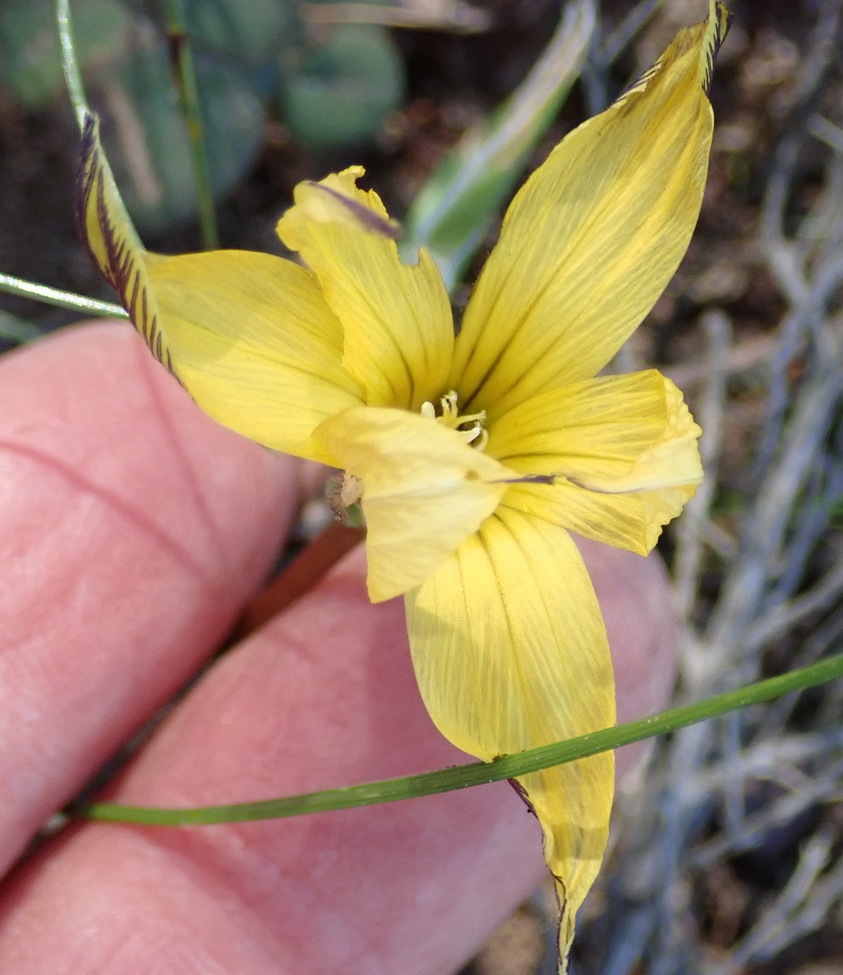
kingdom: Plantae
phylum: Tracheophyta
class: Liliopsida
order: Asparagales
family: Iridaceae
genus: Romulea
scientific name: Romulea luteiflora
